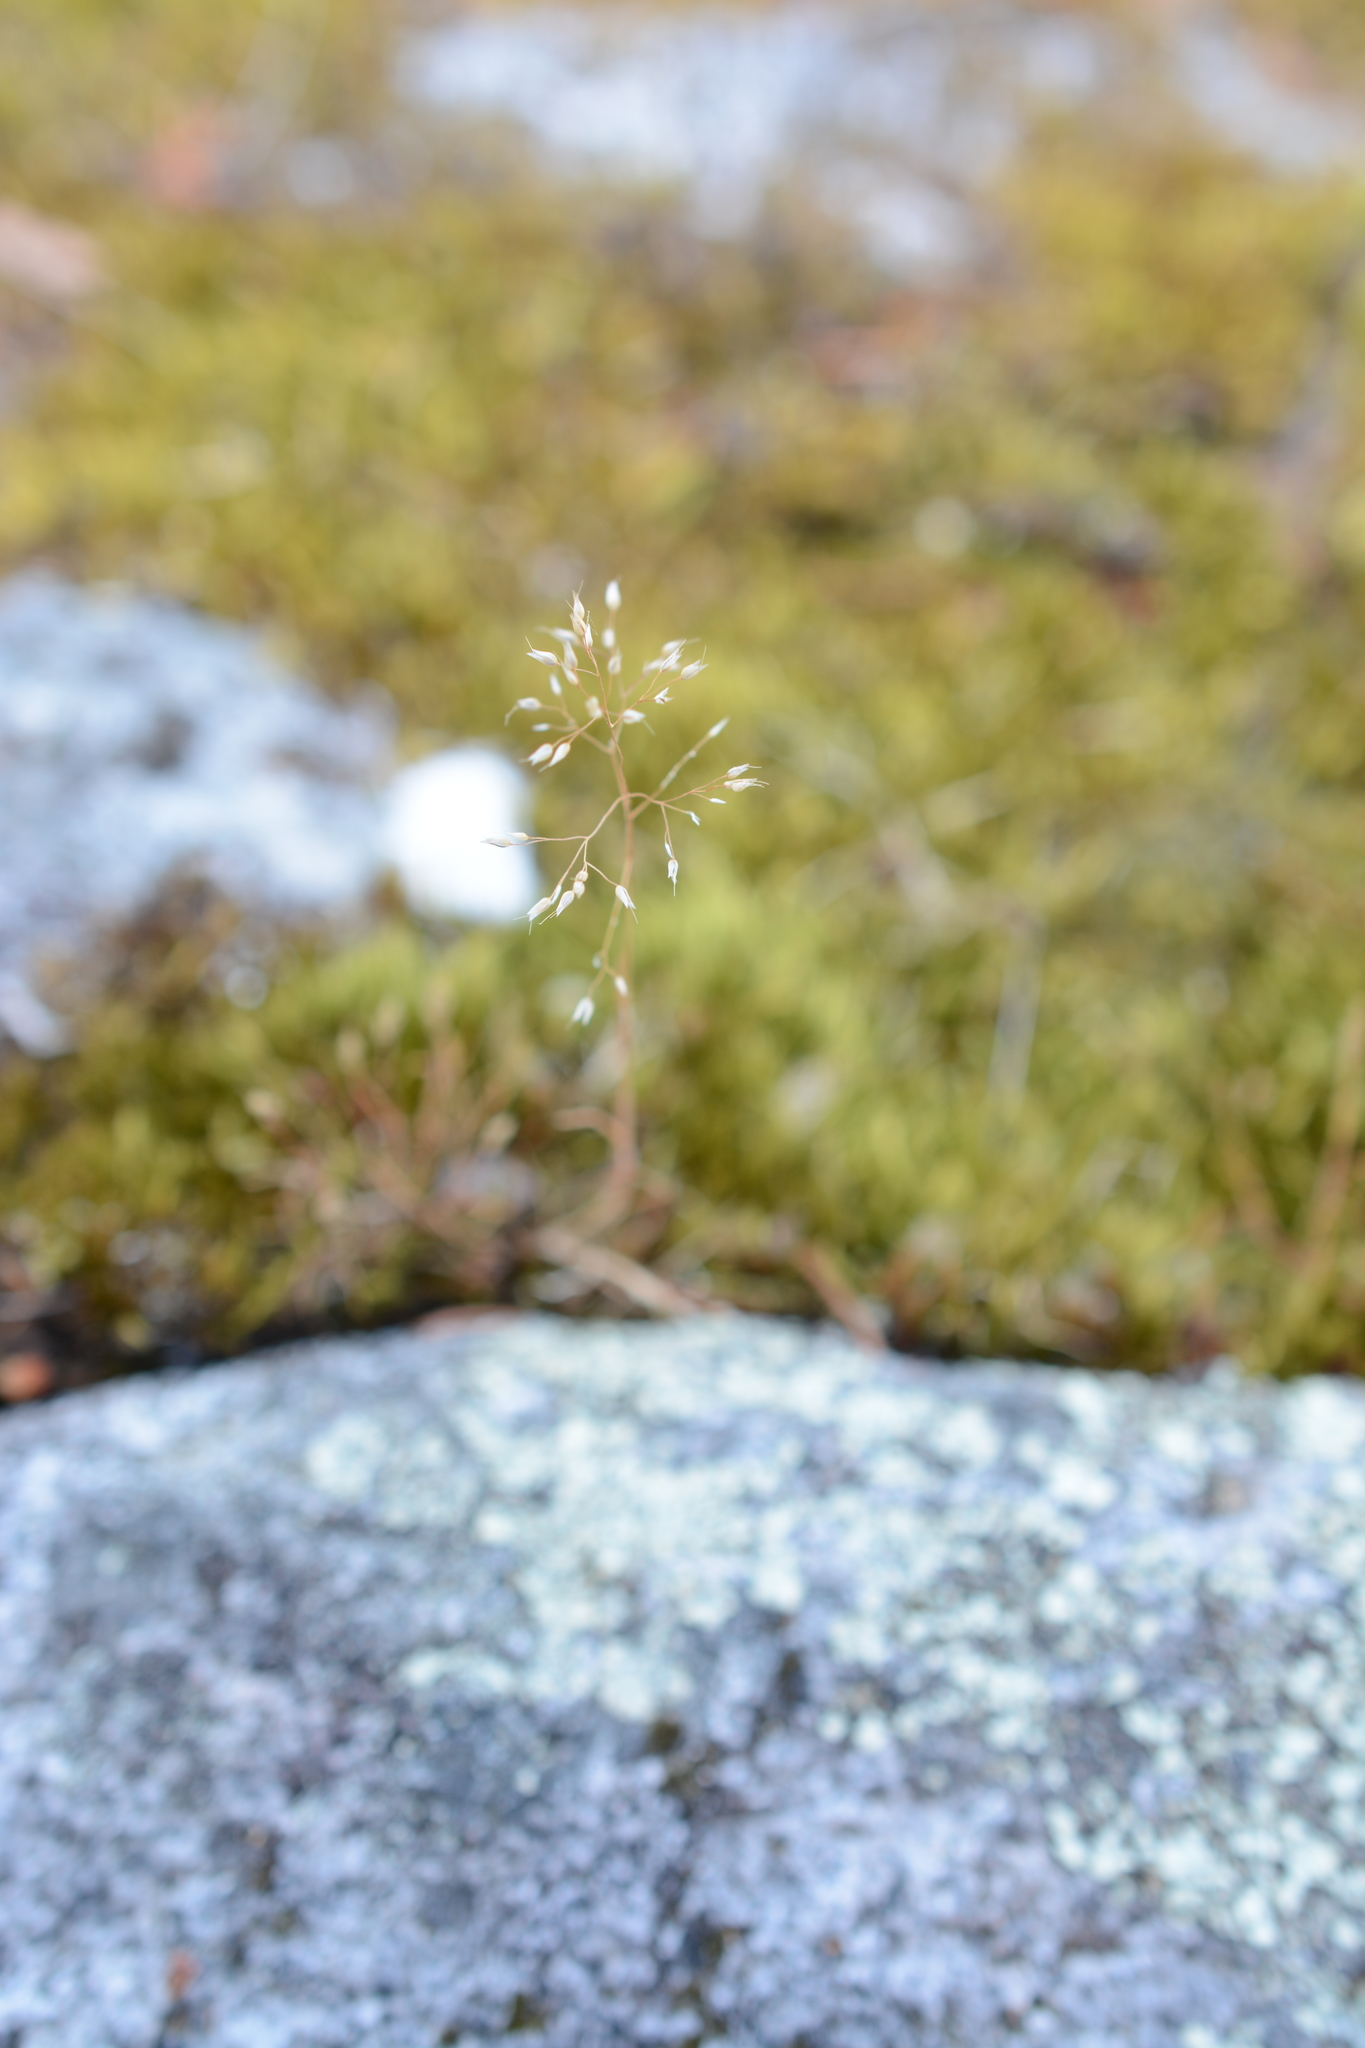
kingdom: Plantae
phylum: Tracheophyta
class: Liliopsida
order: Poales
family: Poaceae
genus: Aira
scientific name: Aira caryophyllea
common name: Silver hairgrass
